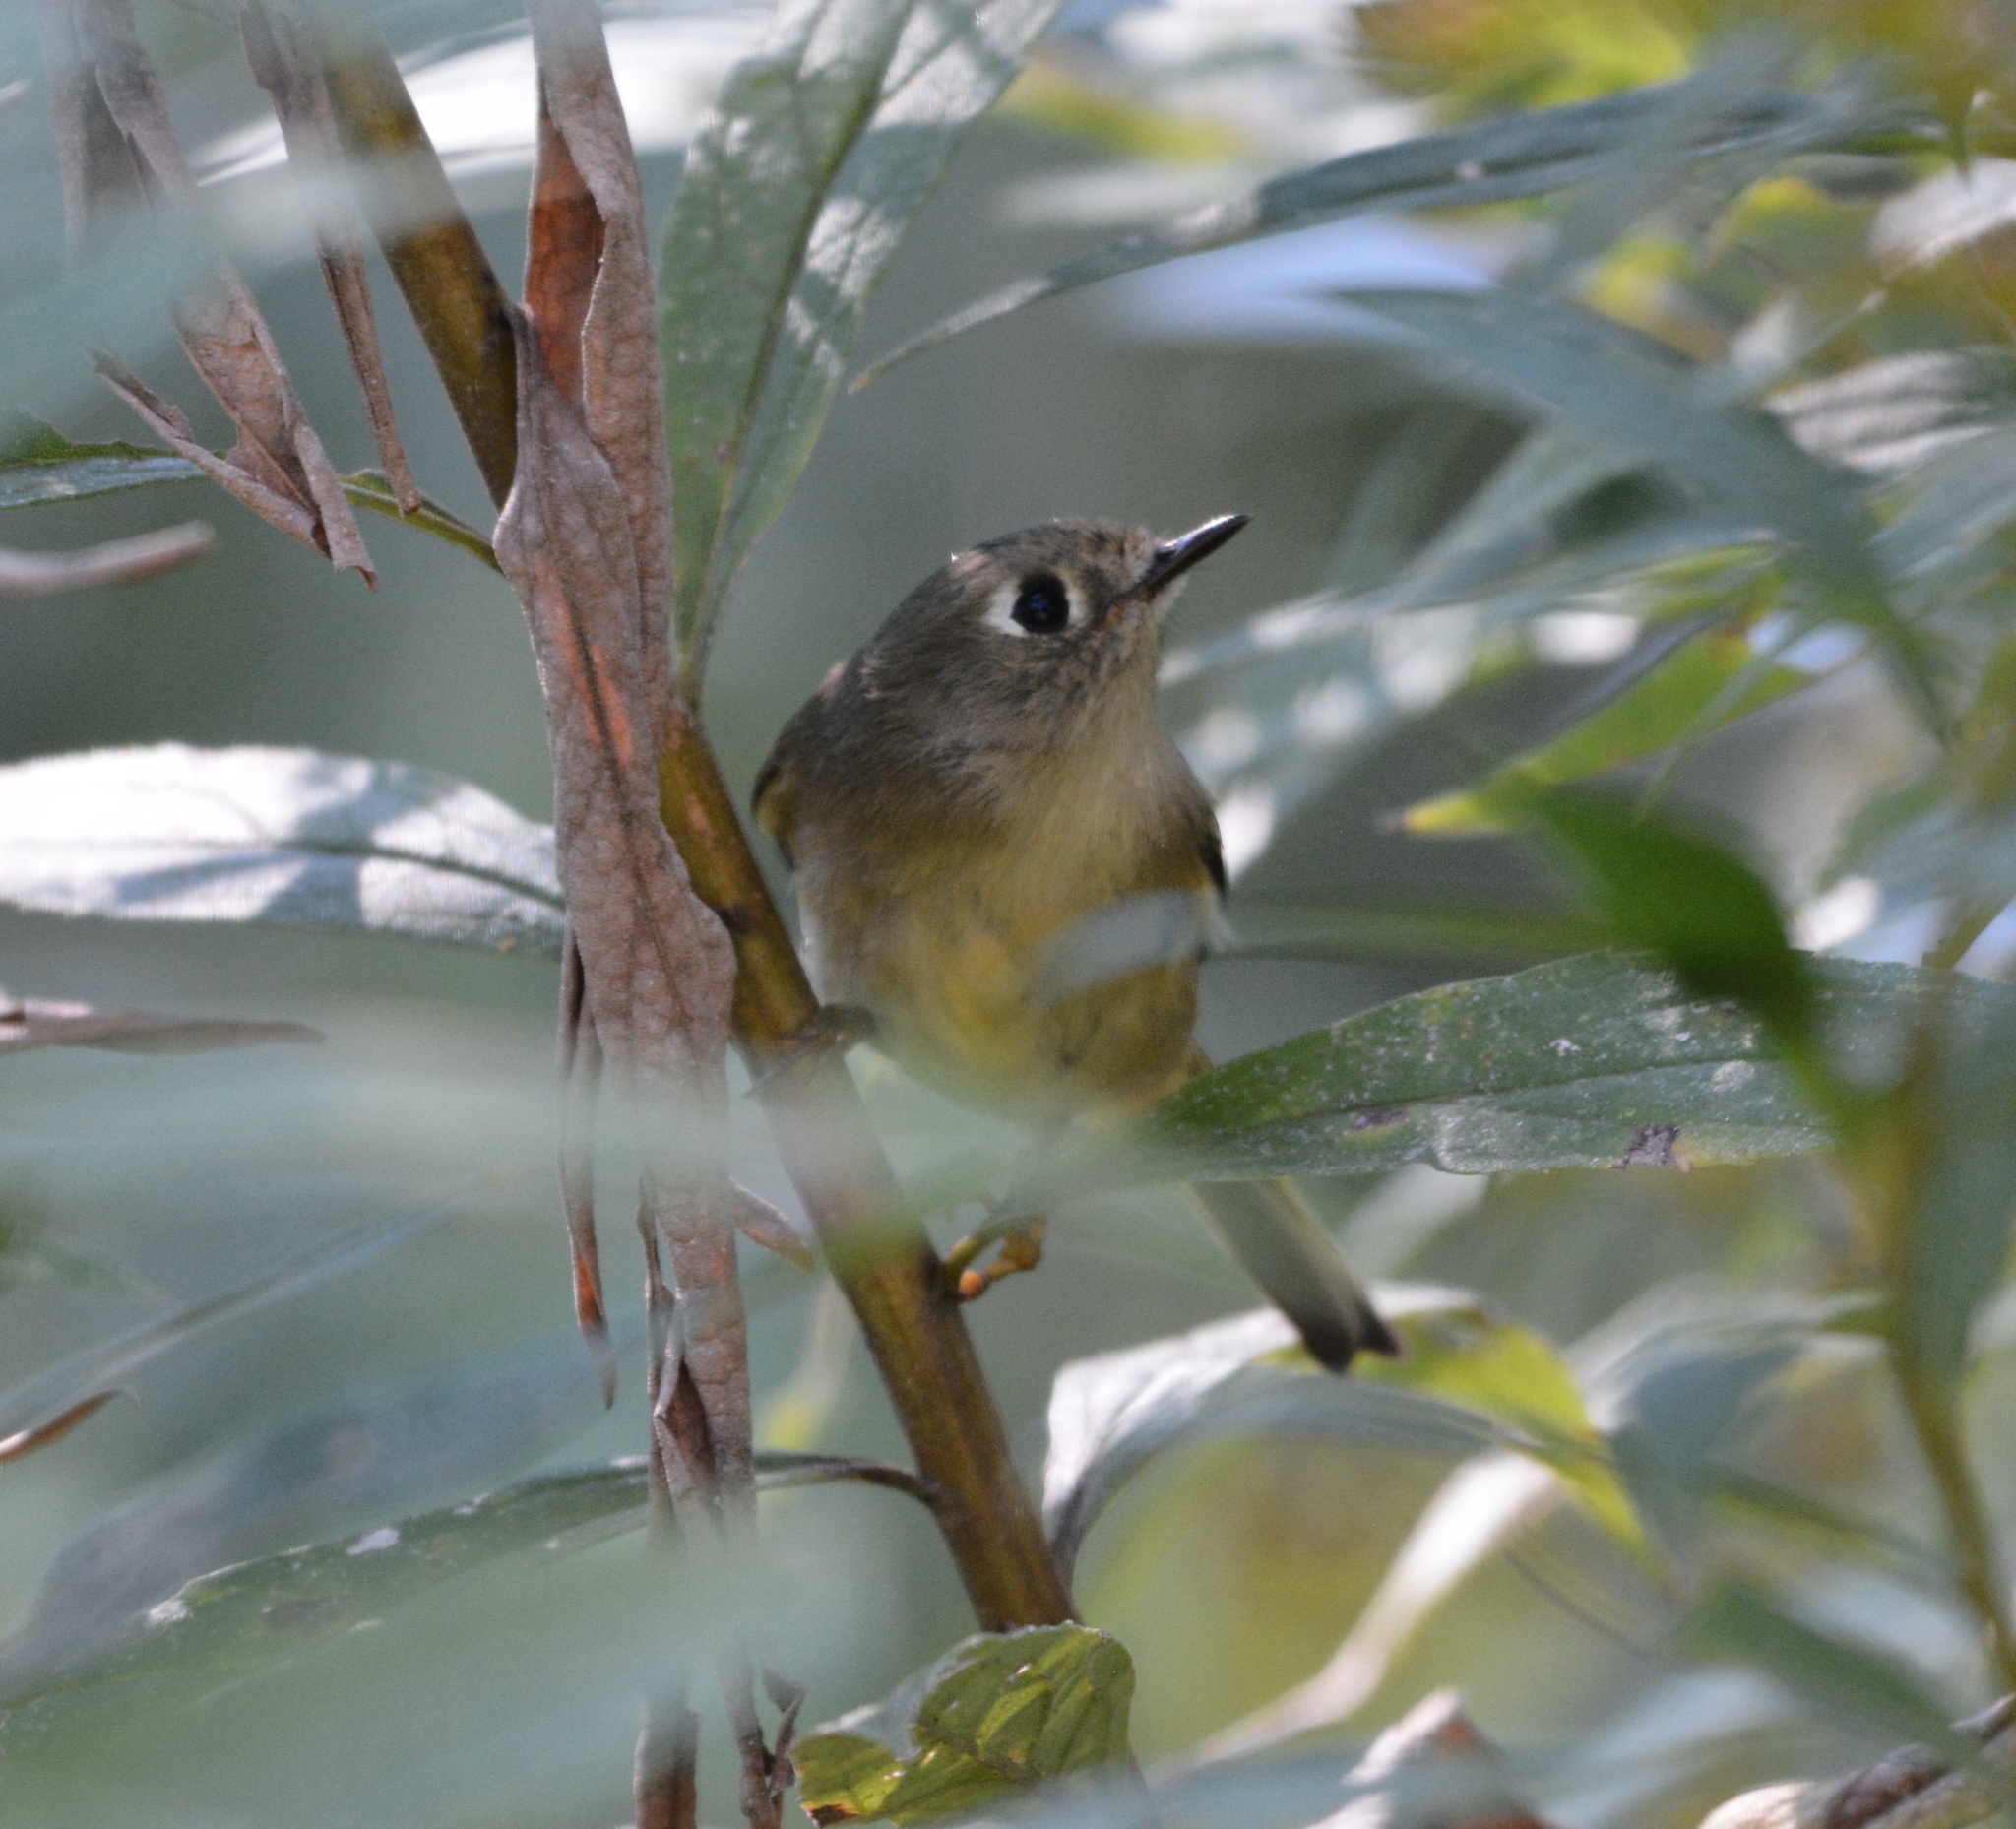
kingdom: Animalia
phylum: Chordata
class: Aves
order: Passeriformes
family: Regulidae
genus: Regulus
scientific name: Regulus calendula
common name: Ruby-crowned kinglet
